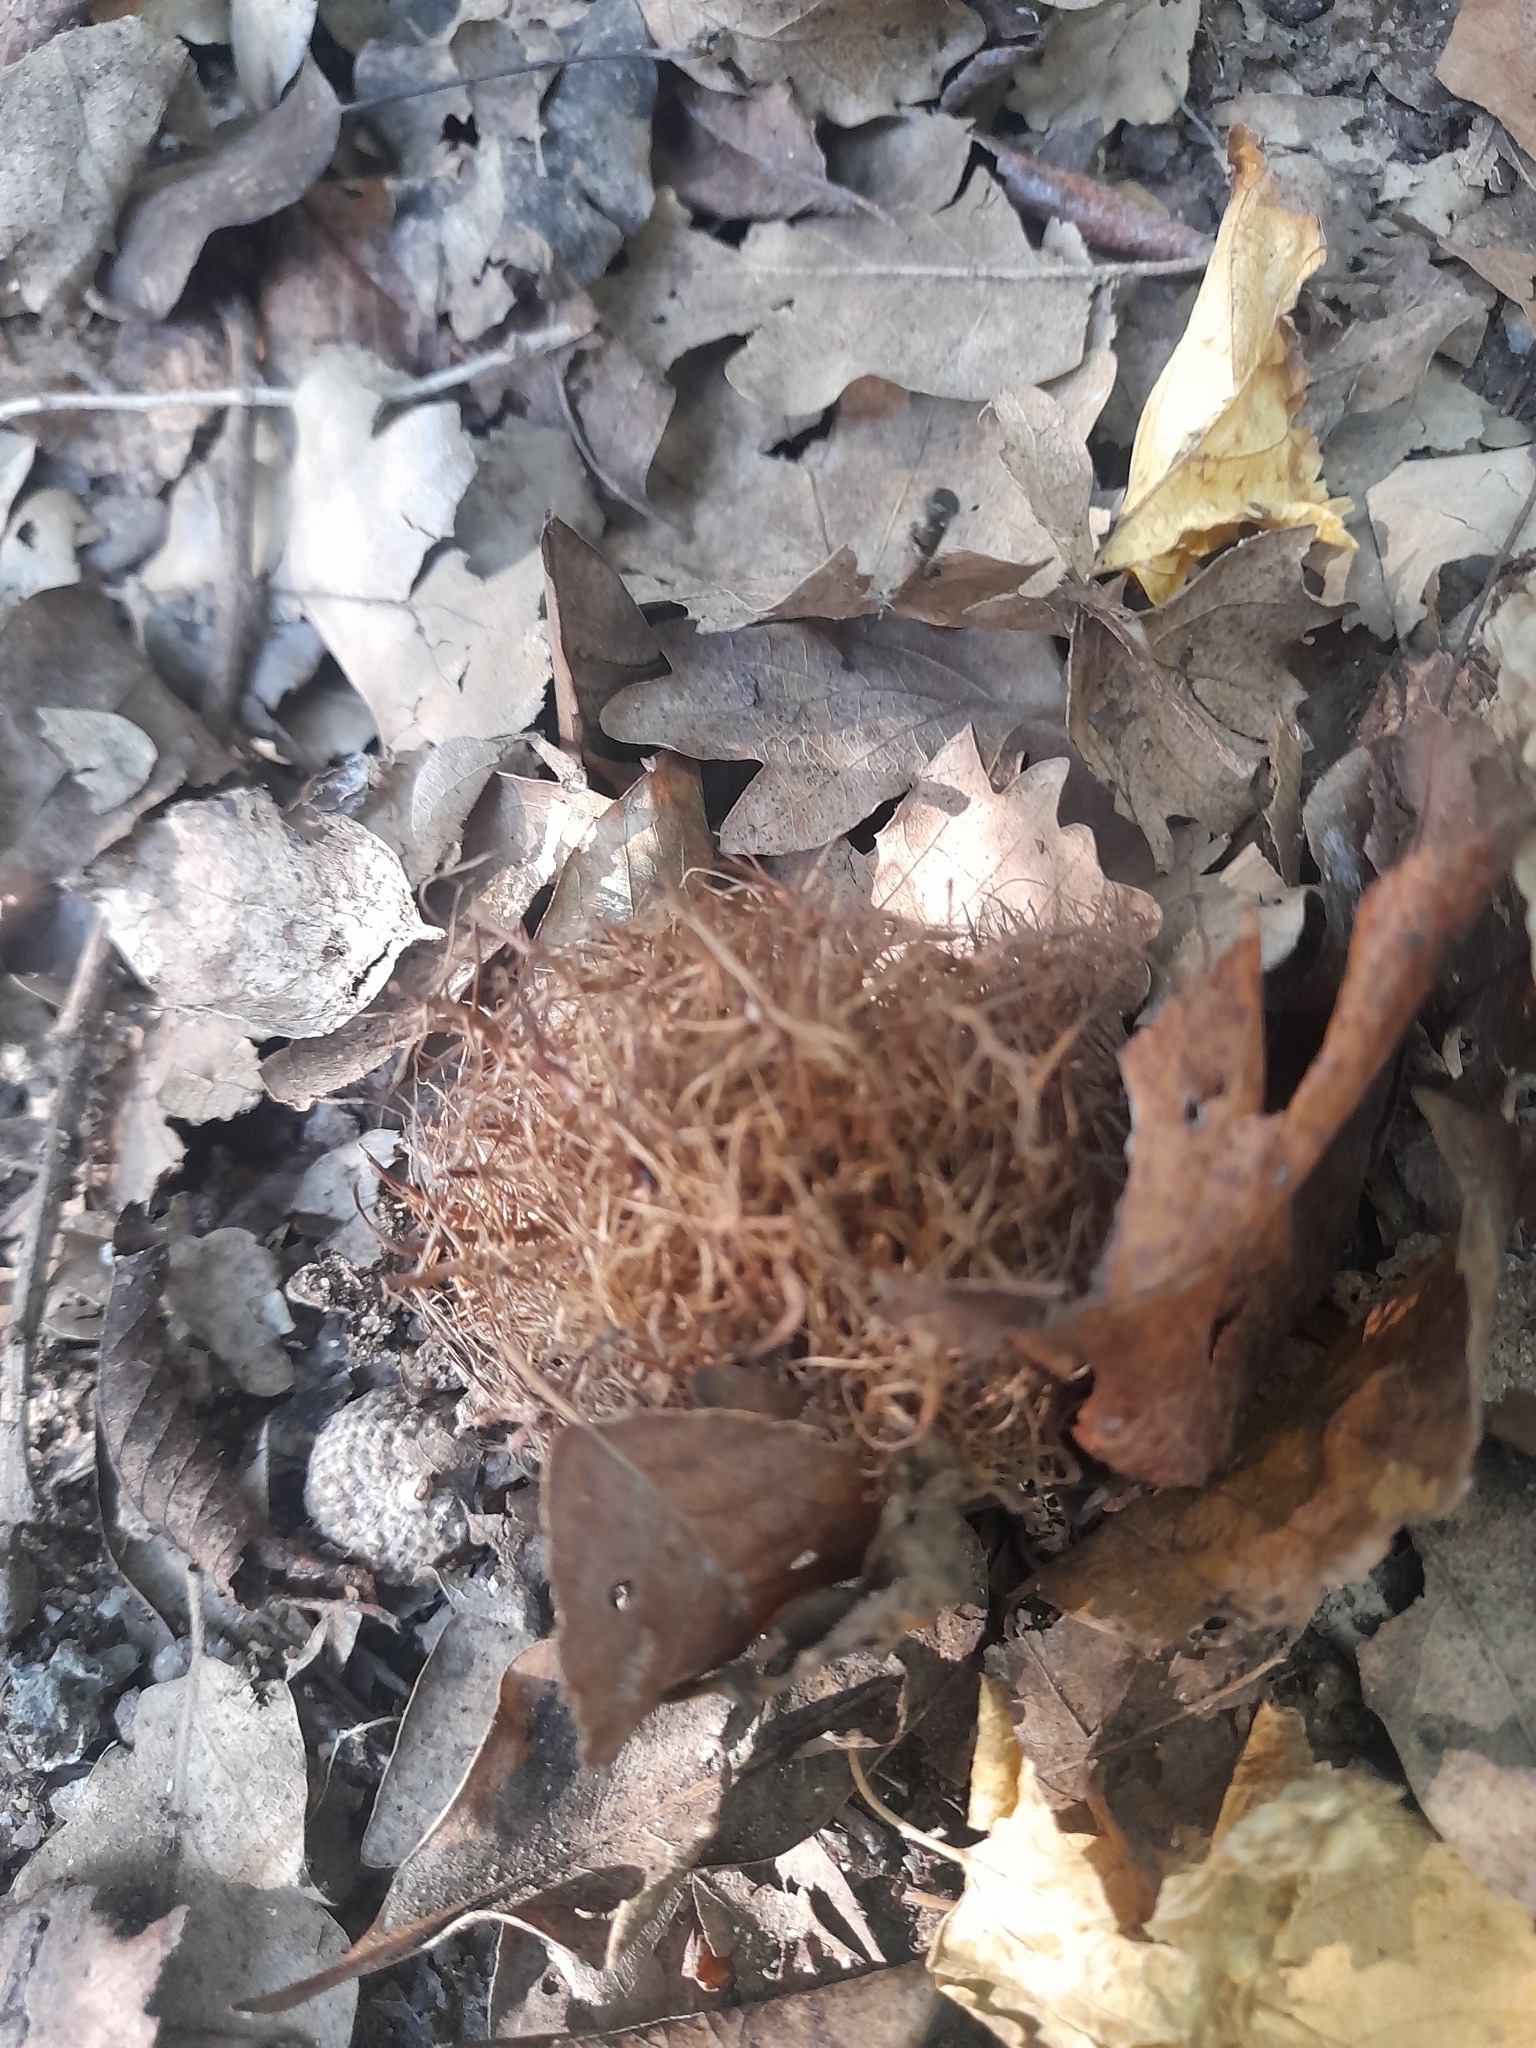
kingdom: Animalia
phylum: Arthropoda
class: Insecta
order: Hymenoptera
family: Cynipidae
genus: Andricus
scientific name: Andricus caputmedusae
